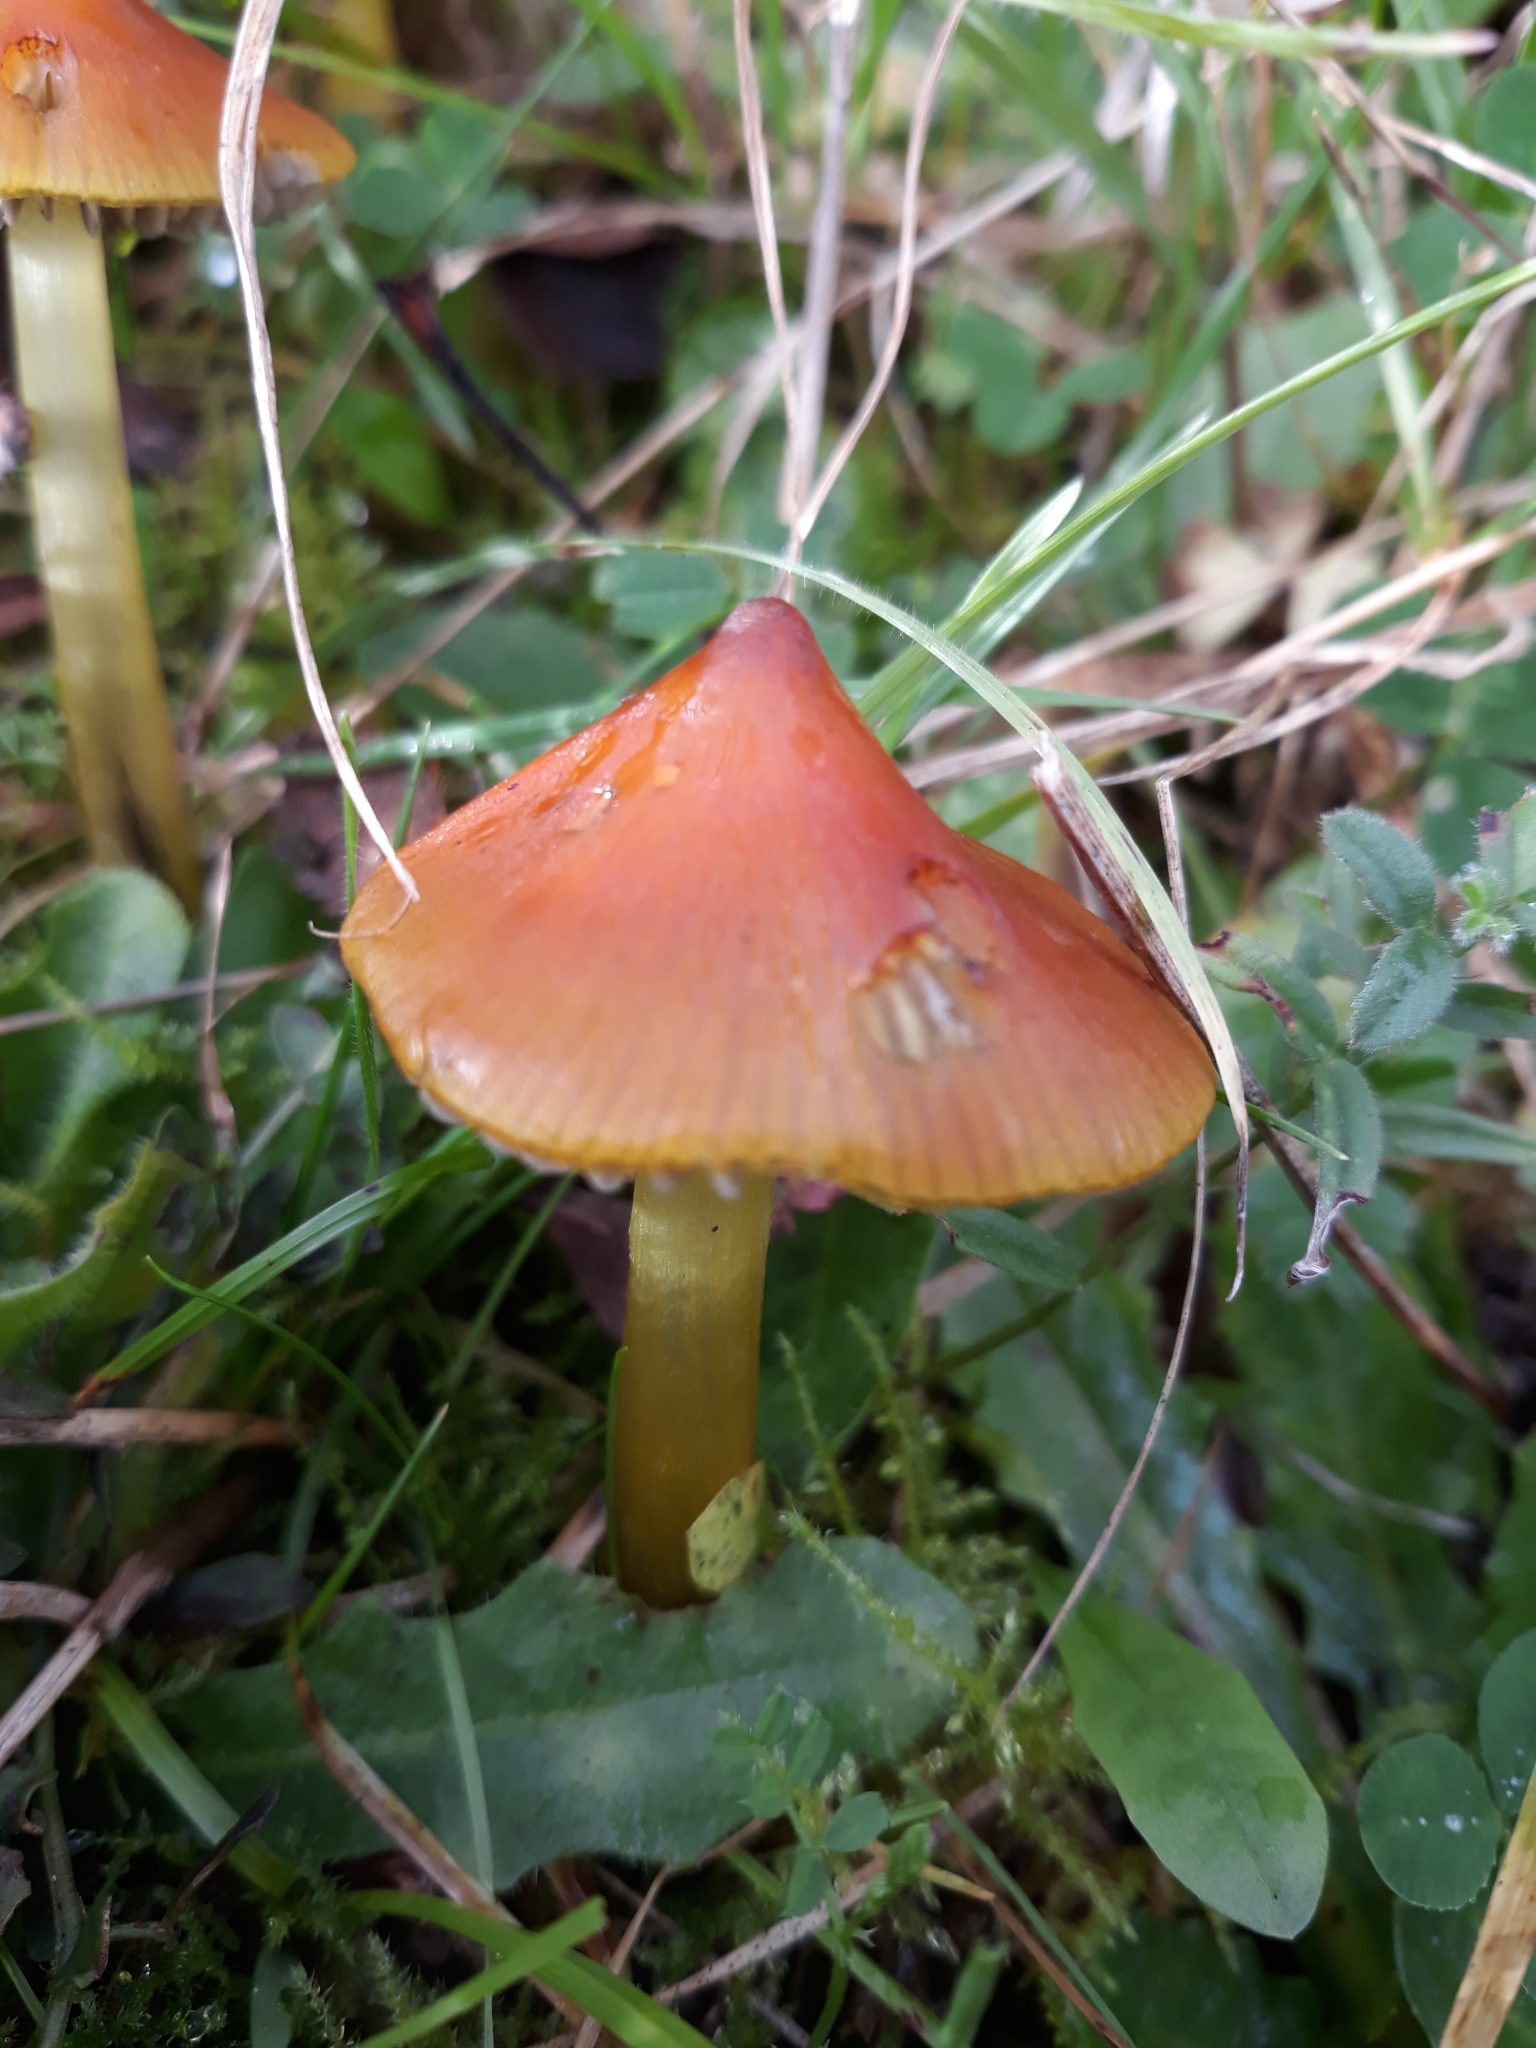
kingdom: Fungi
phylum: Basidiomycota
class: Agaricomycetes
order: Agaricales
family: Hygrophoraceae
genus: Hygrocybe
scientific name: Hygrocybe conica
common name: Blackening wax-cap
